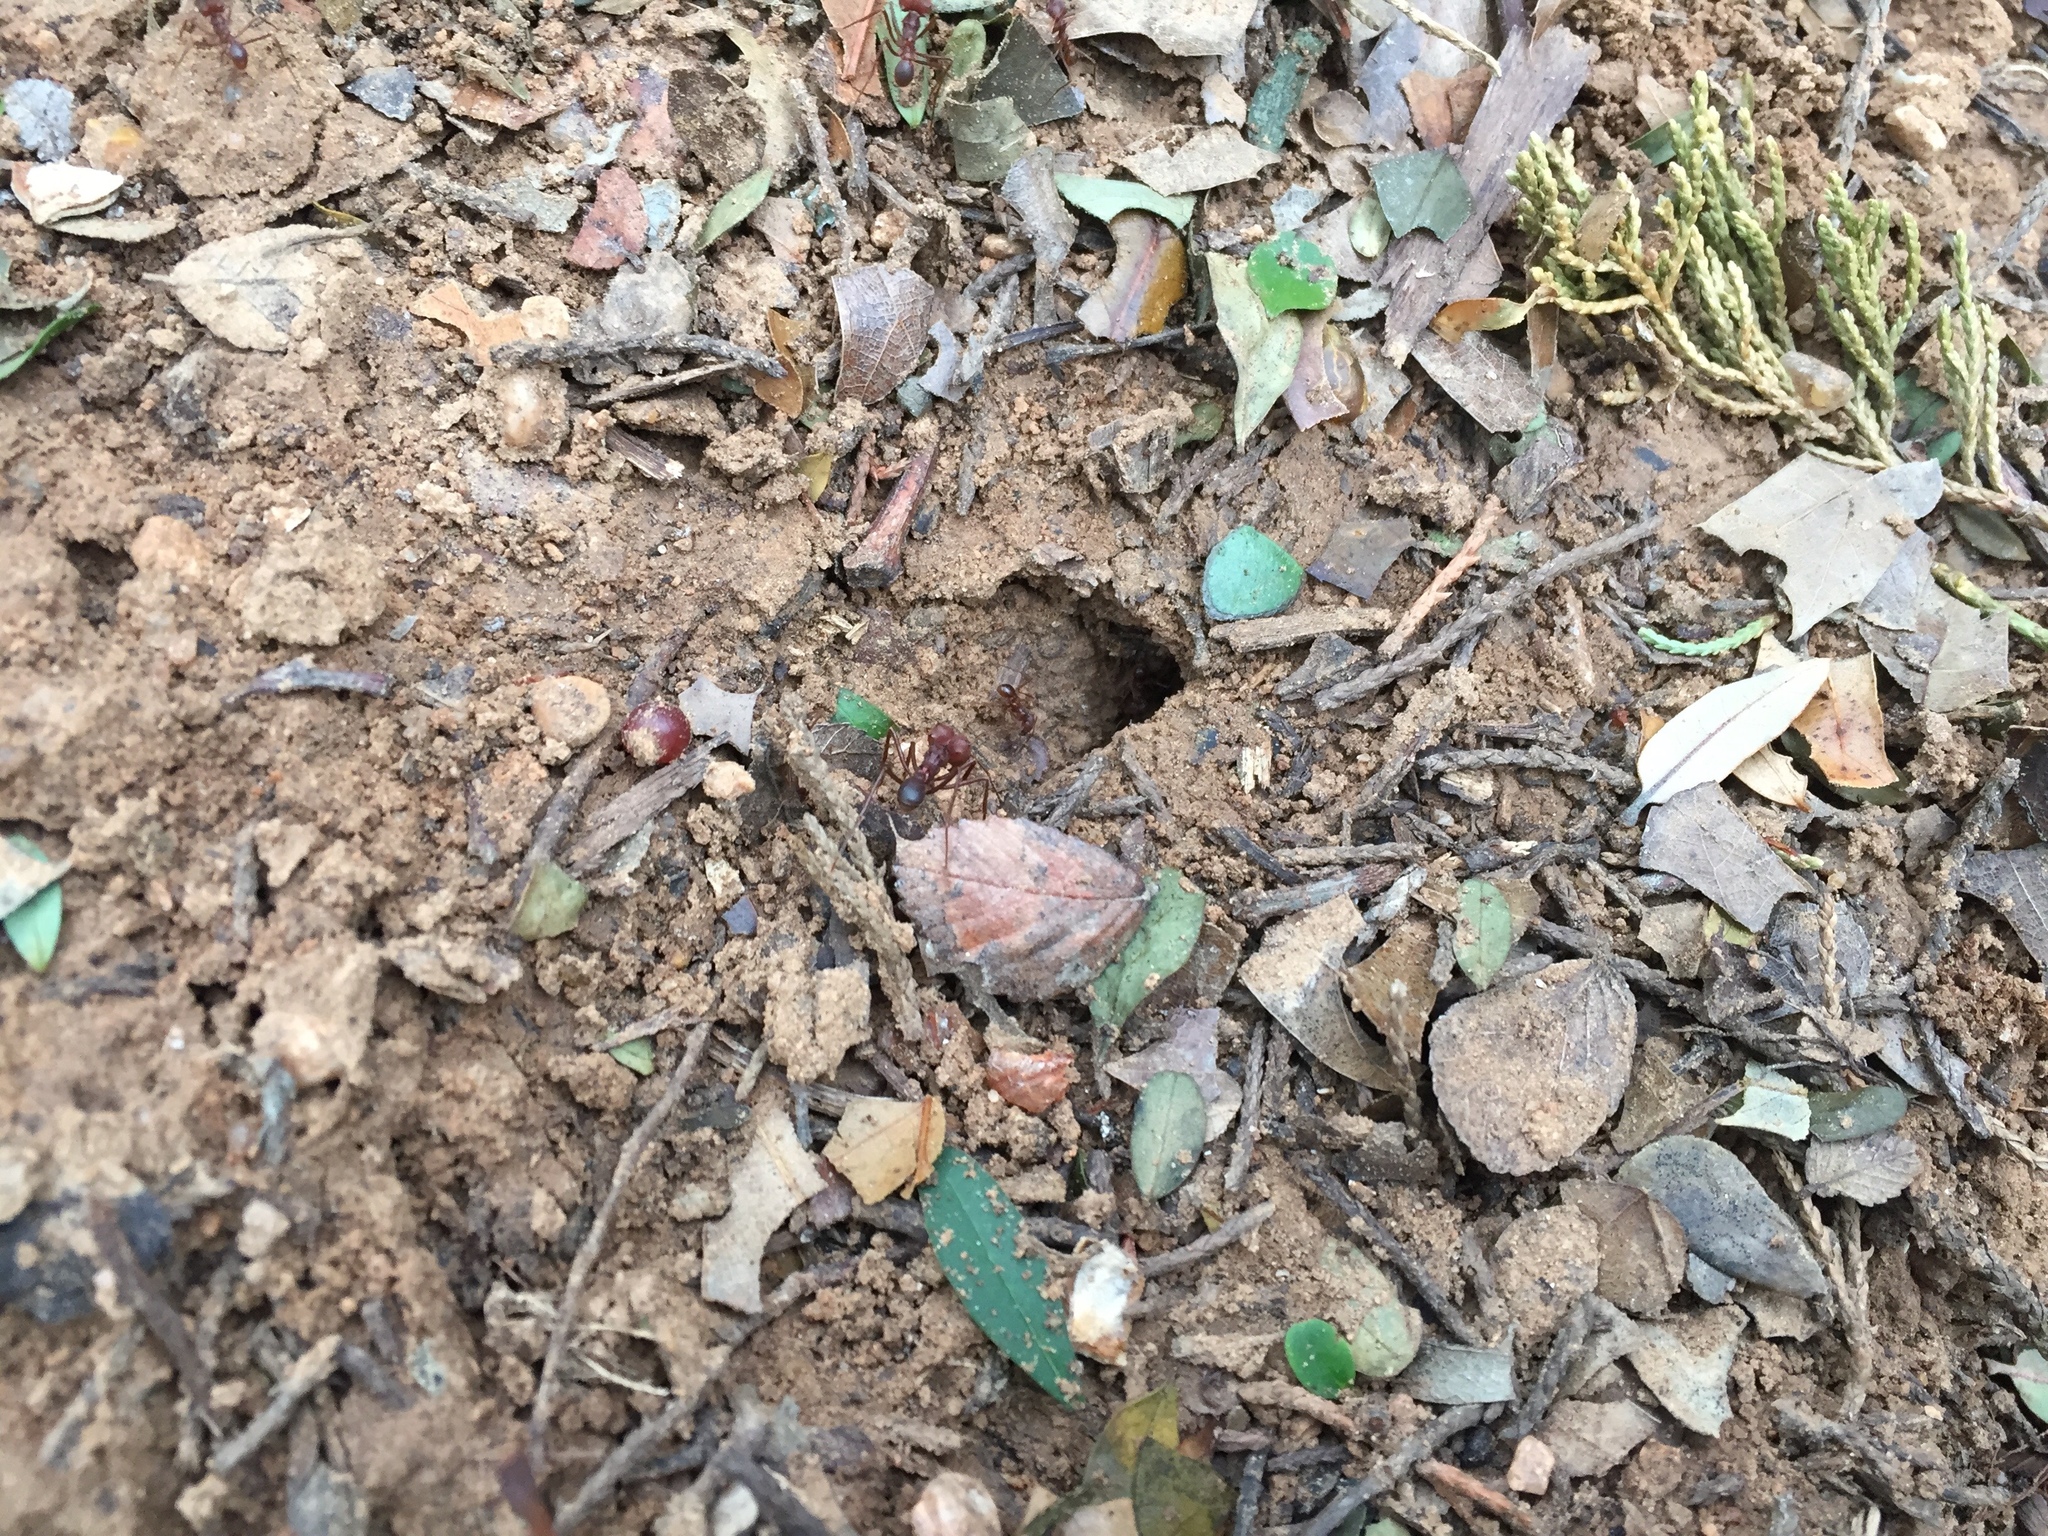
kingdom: Animalia
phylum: Arthropoda
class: Insecta
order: Hymenoptera
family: Formicidae
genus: Atta
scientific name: Atta texana
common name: Texas leafcutting ant
